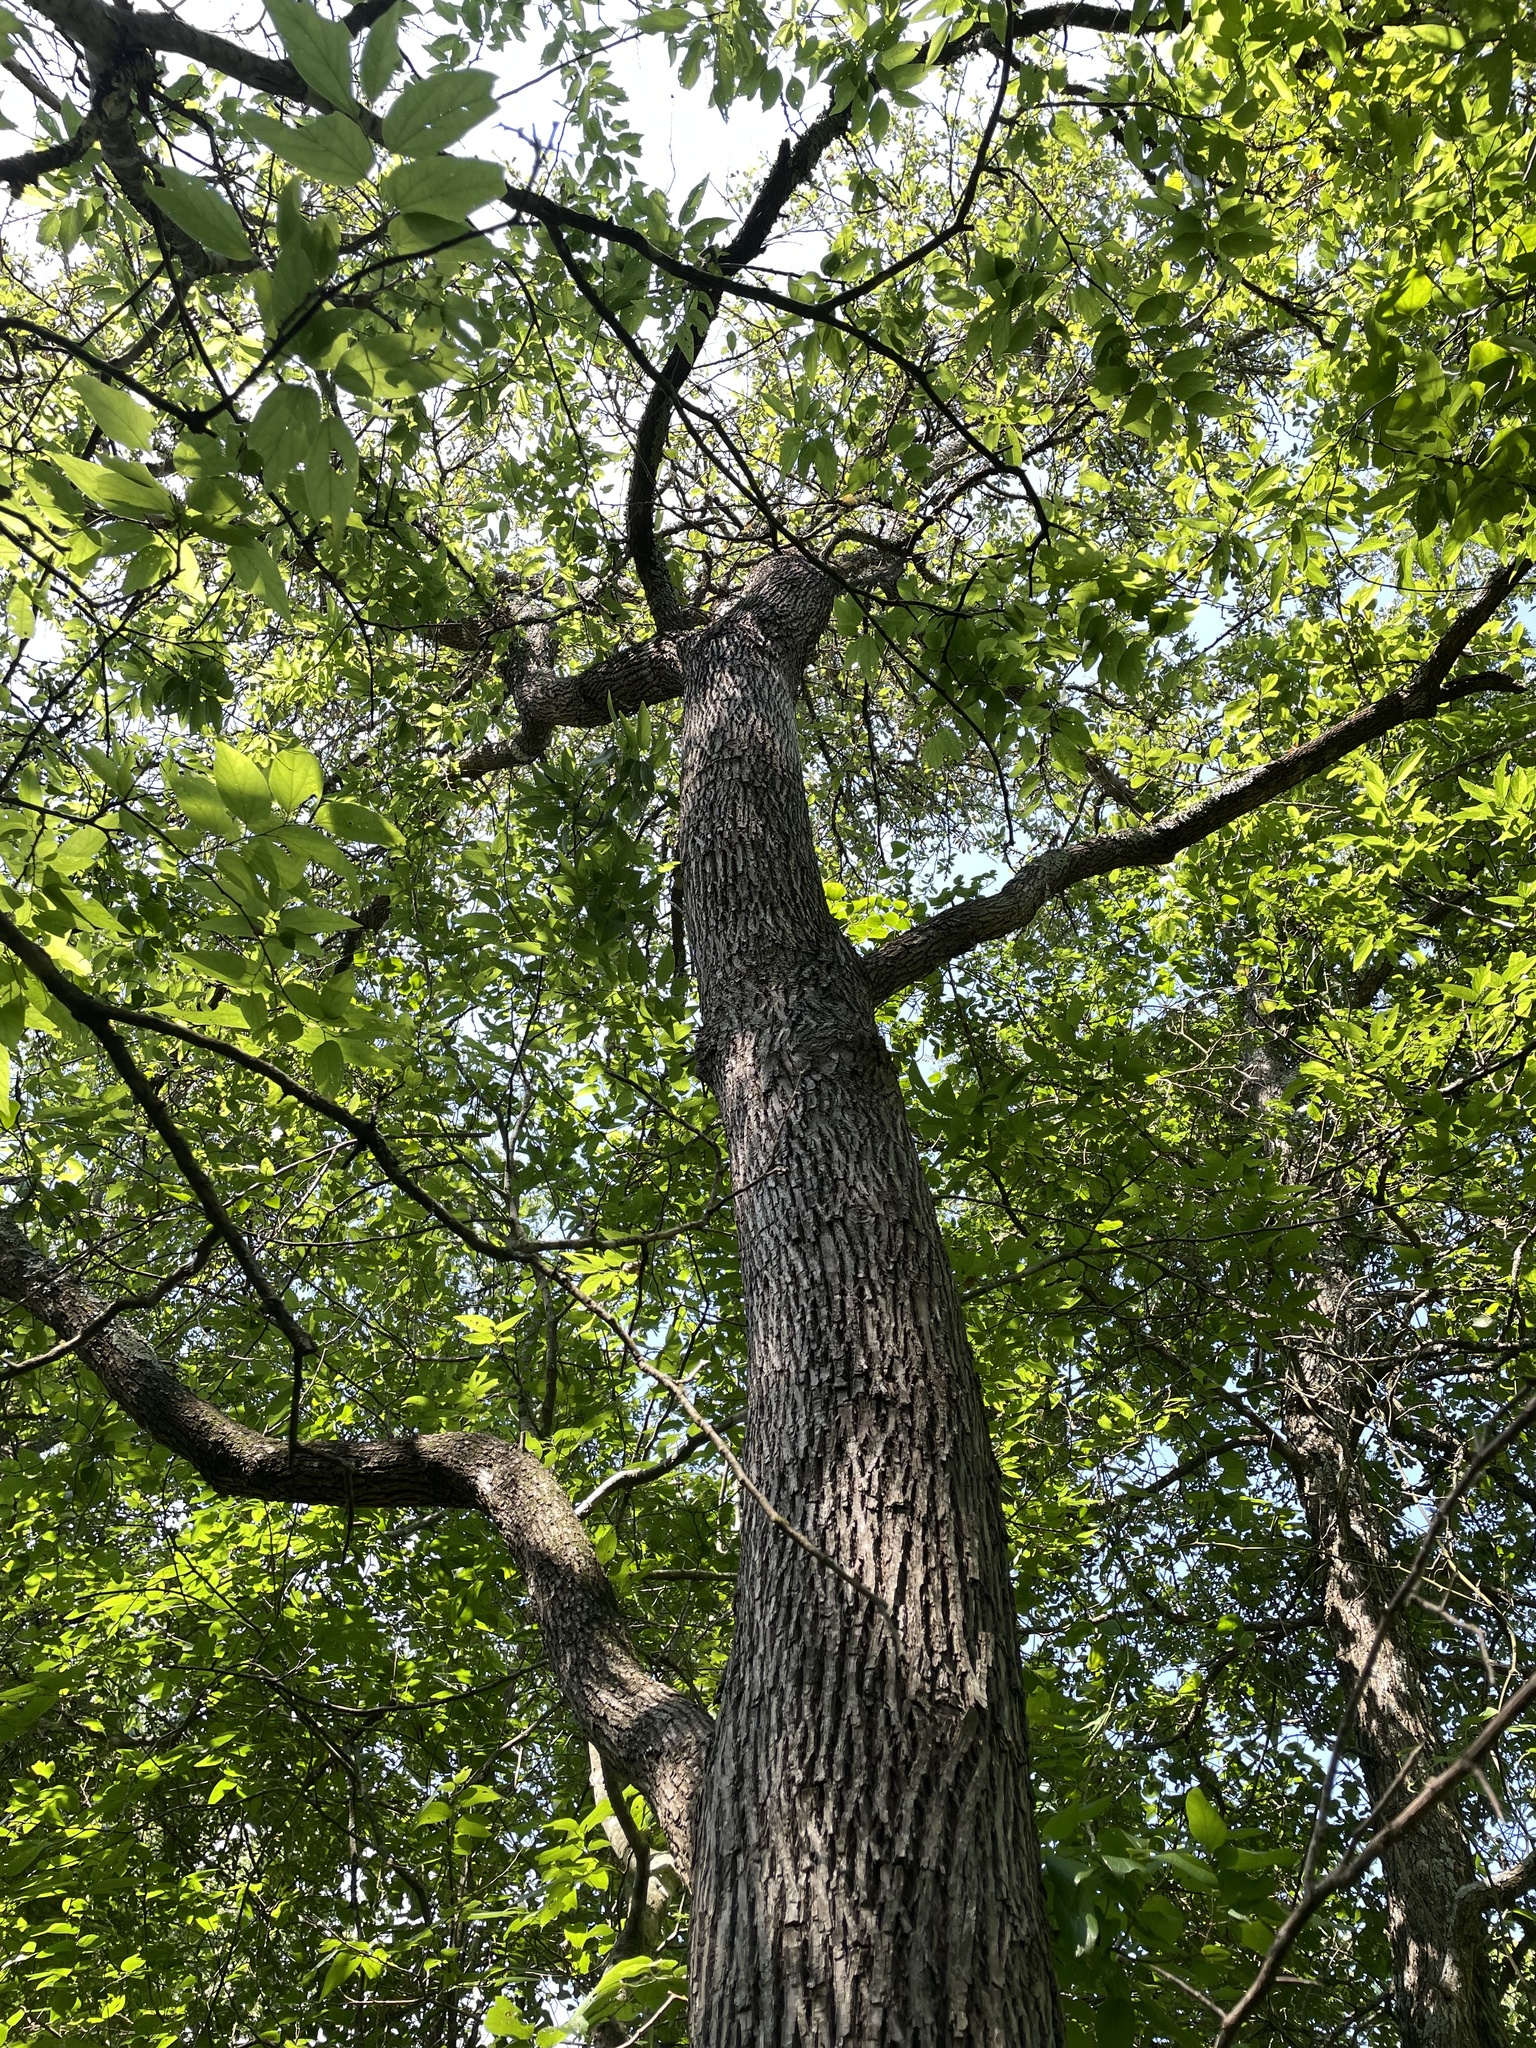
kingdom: Plantae
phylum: Tracheophyta
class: Magnoliopsida
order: Ericales
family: Sapotaceae
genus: Sideroxylon
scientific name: Sideroxylon lanuginosum
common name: Chittamwood
